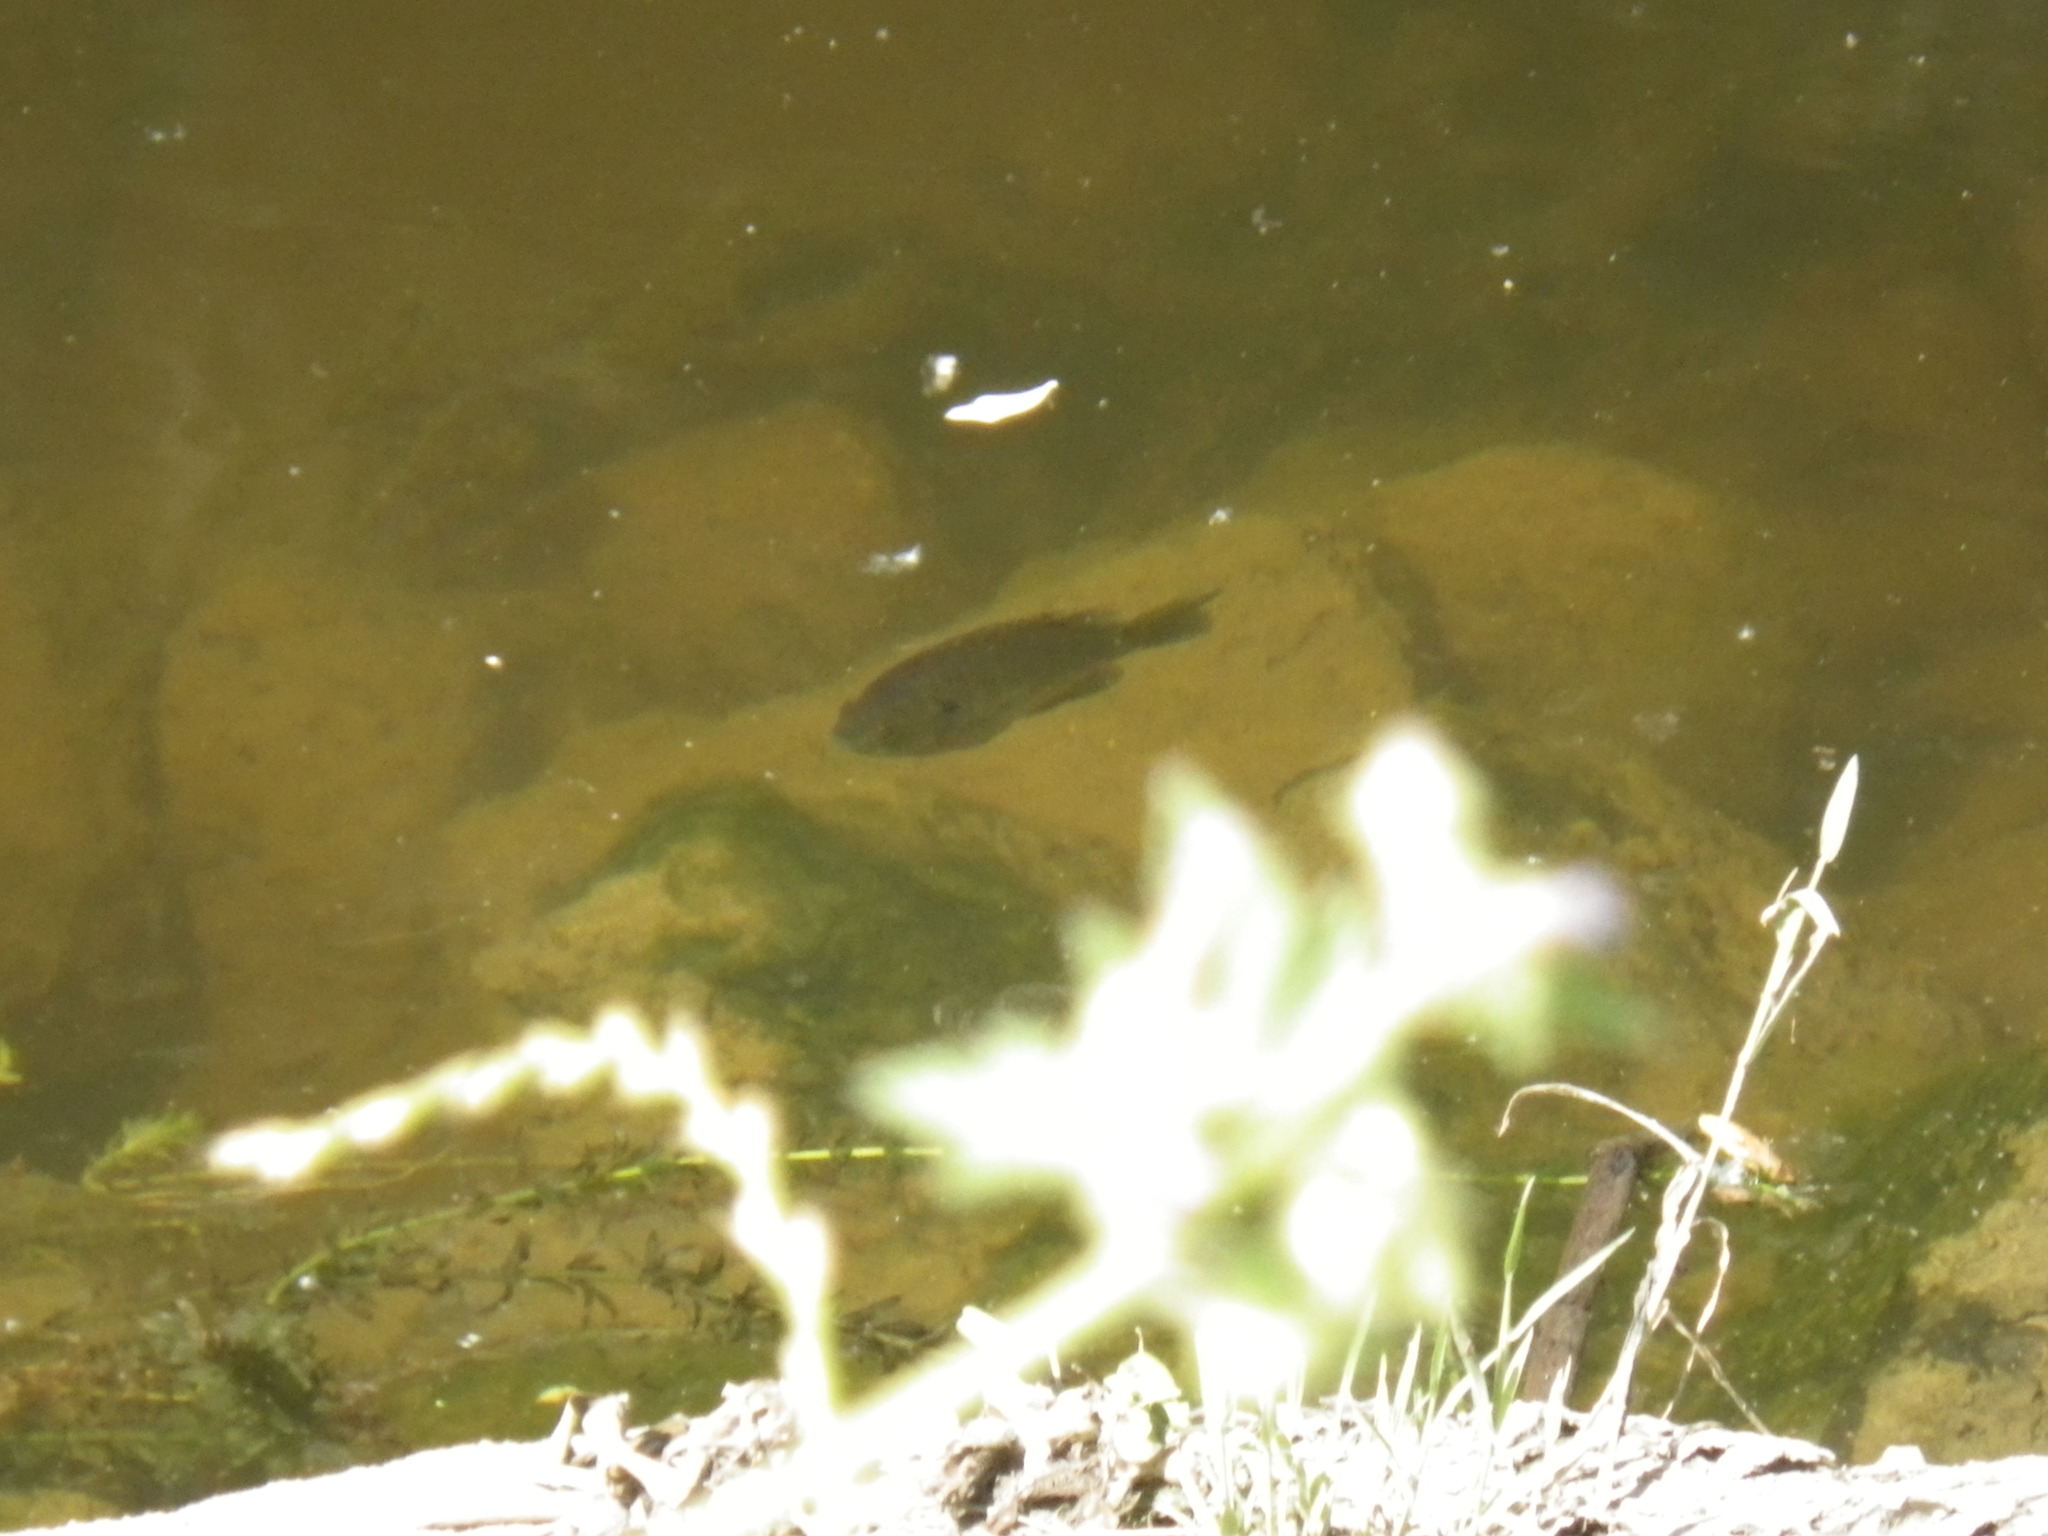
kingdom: Animalia
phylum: Chordata
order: Perciformes
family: Centrarchidae
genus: Lepomis
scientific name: Lepomis macrochirus
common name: Bluegill
